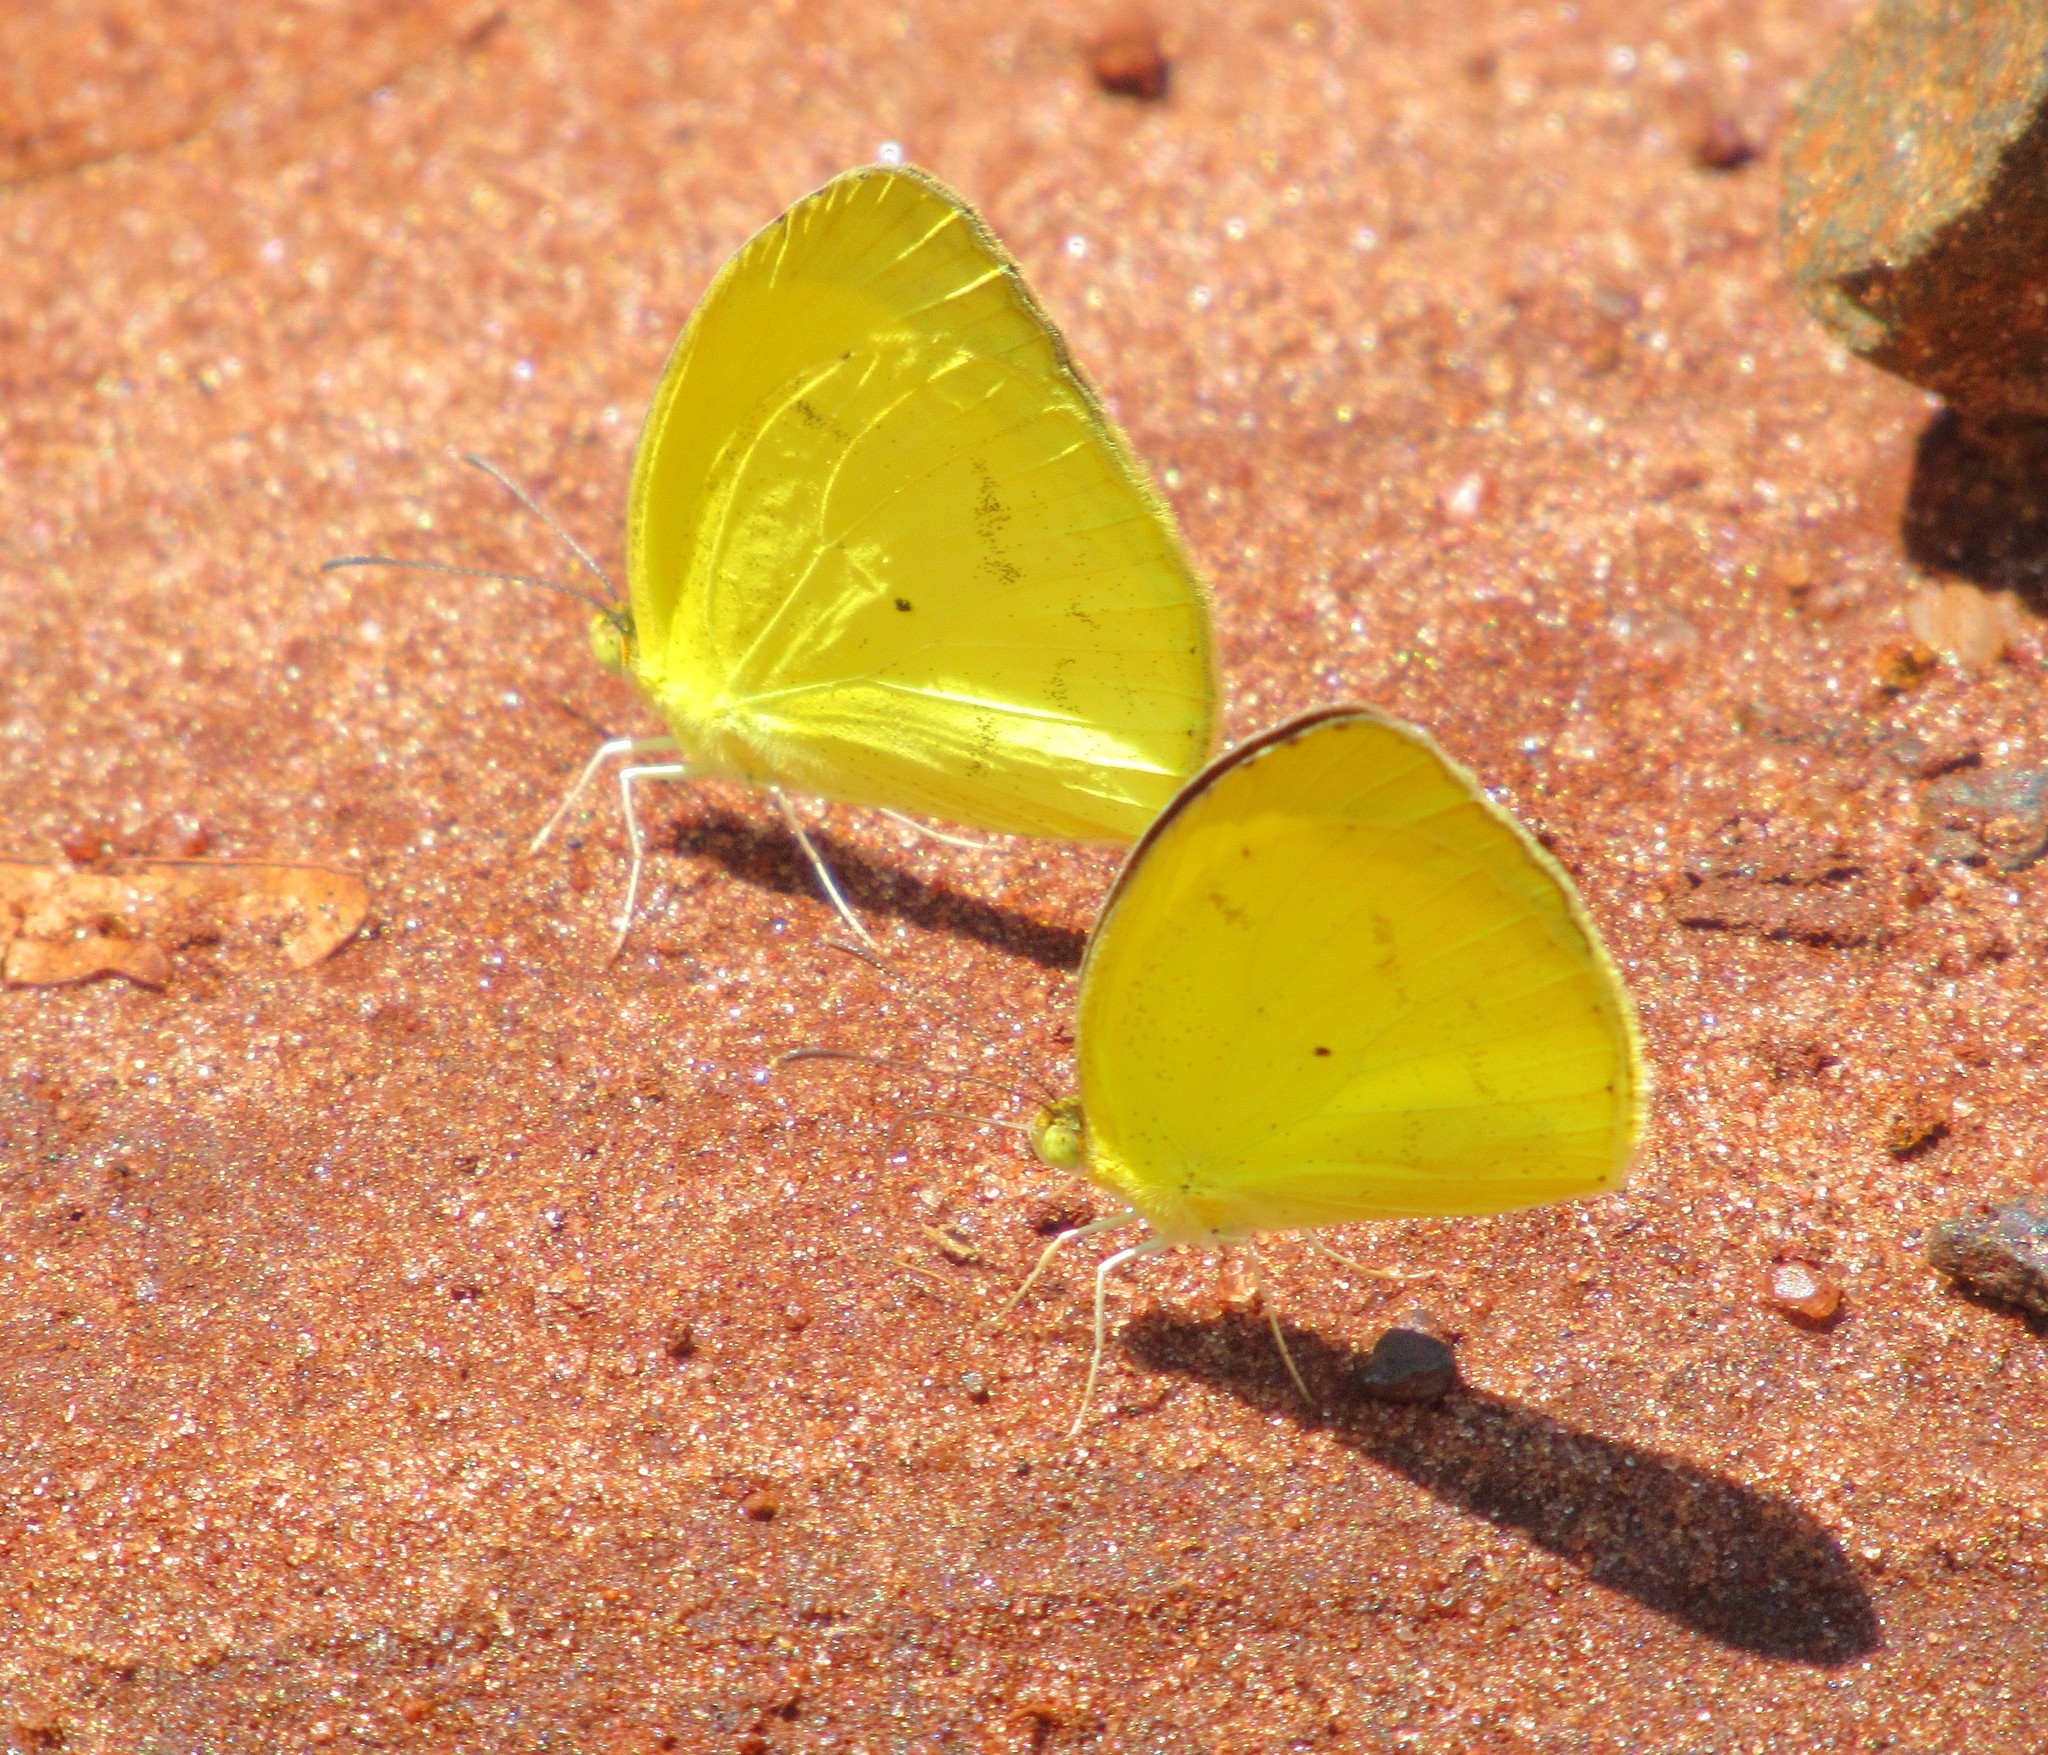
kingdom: Animalia
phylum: Arthropoda
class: Insecta
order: Lepidoptera
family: Pieridae
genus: Pyrisitia
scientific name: Pyrisitia nise
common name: Mimosa yellow
